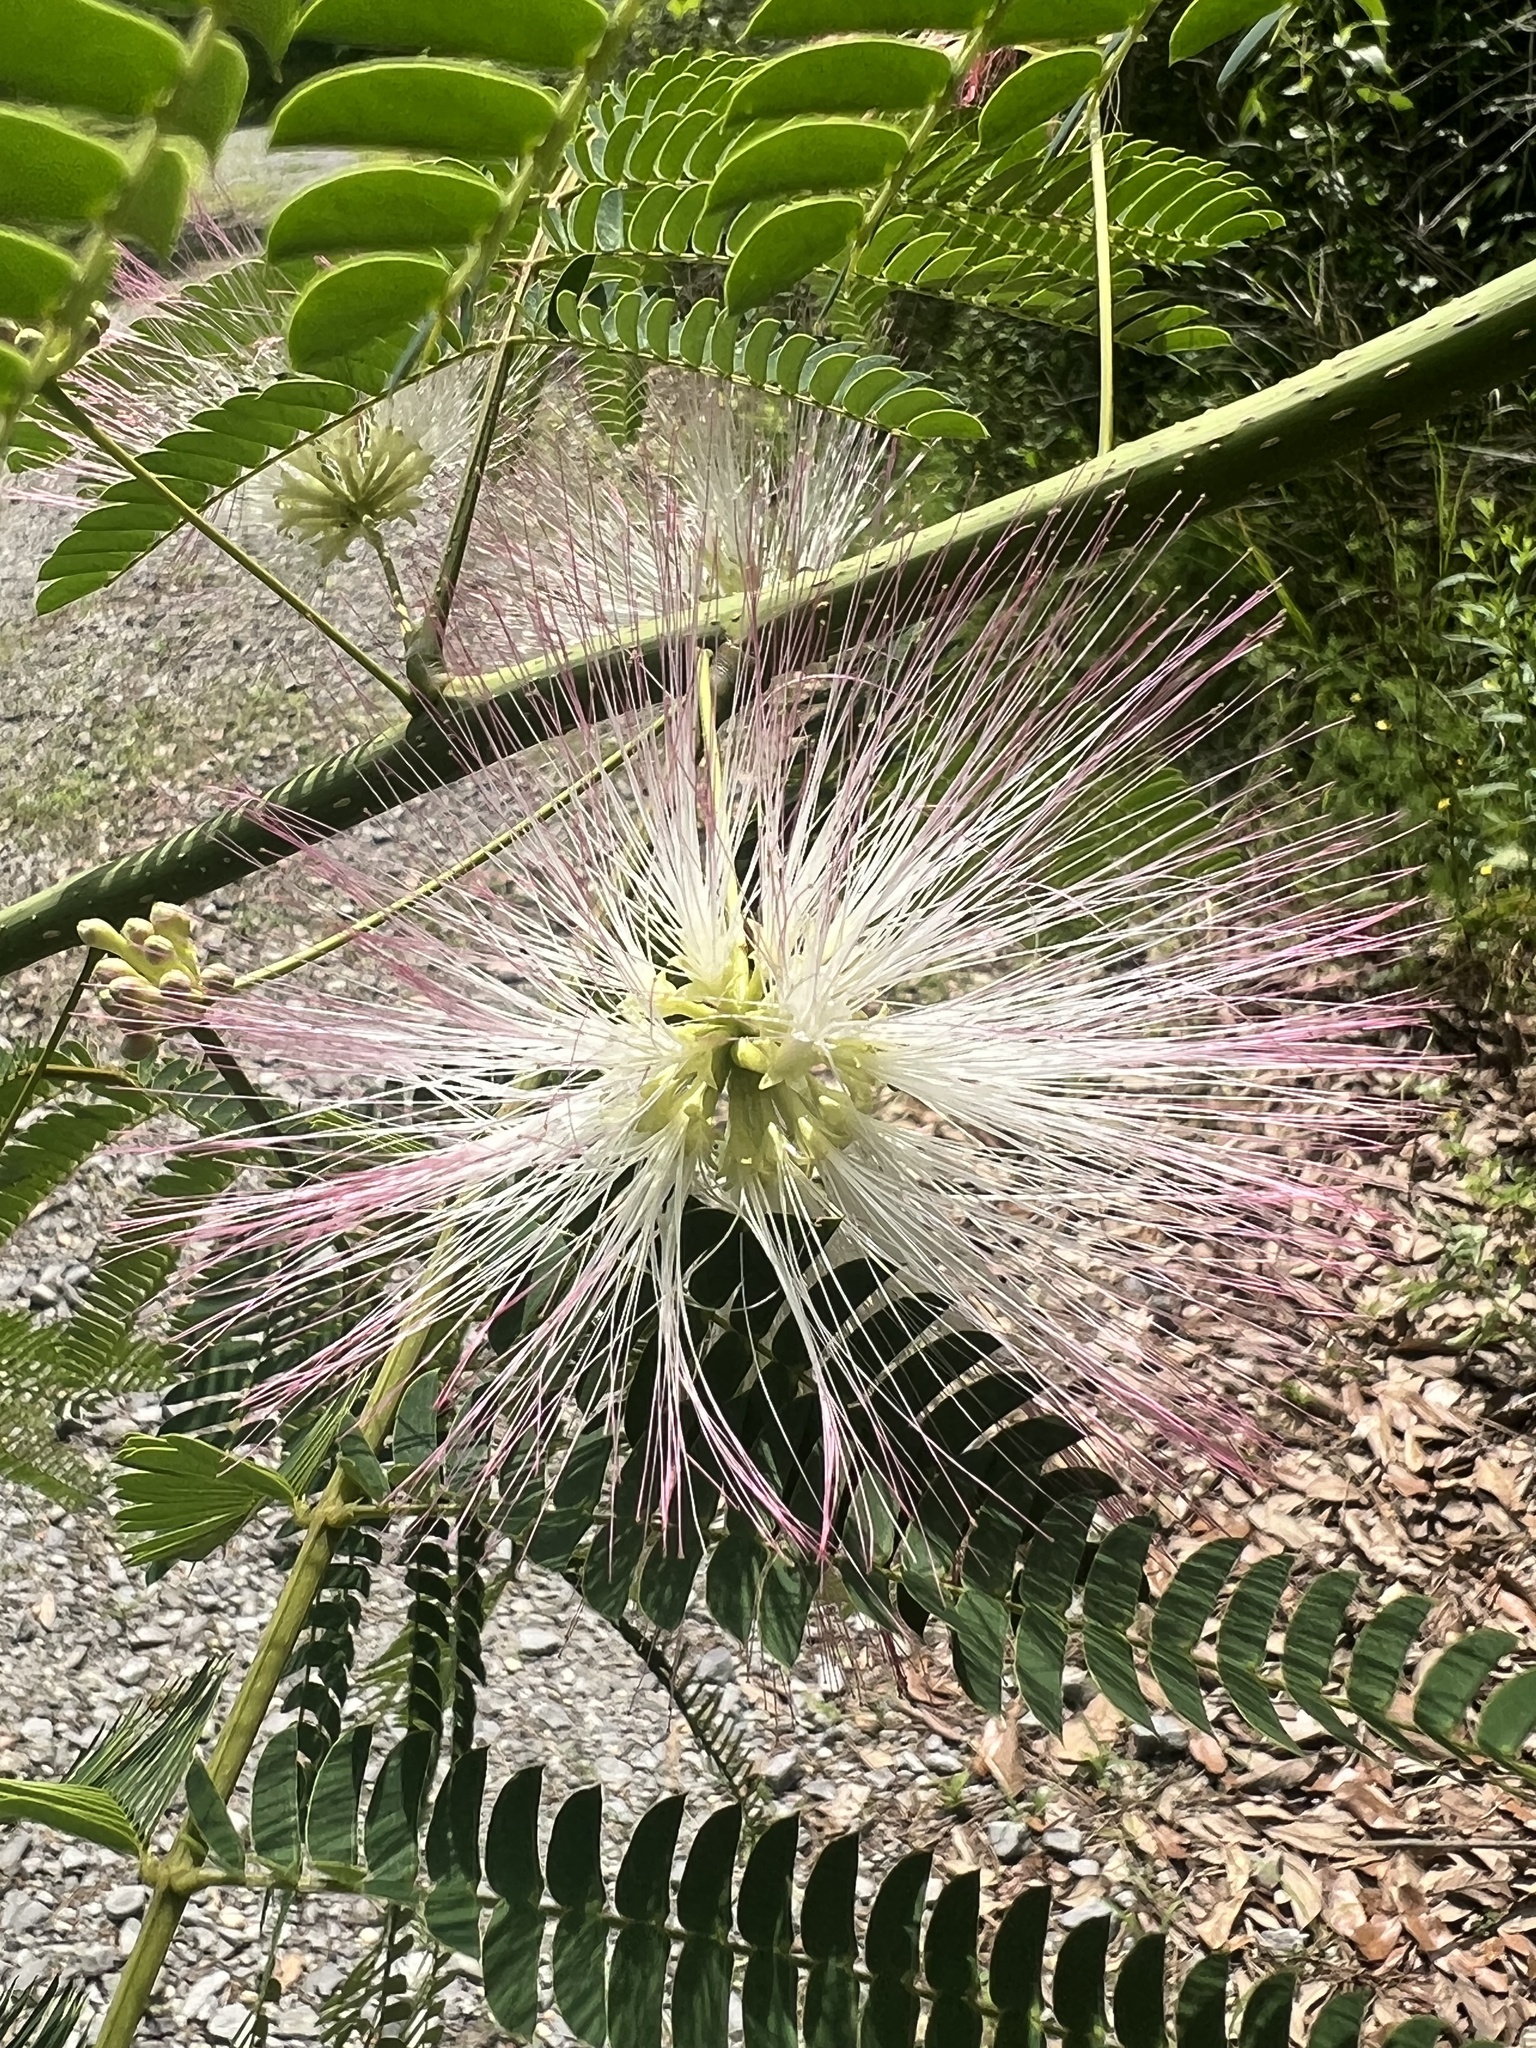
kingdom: Plantae
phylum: Tracheophyta
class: Magnoliopsida
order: Fabales
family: Fabaceae
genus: Albizia
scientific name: Albizia julibrissin
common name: Silktree
